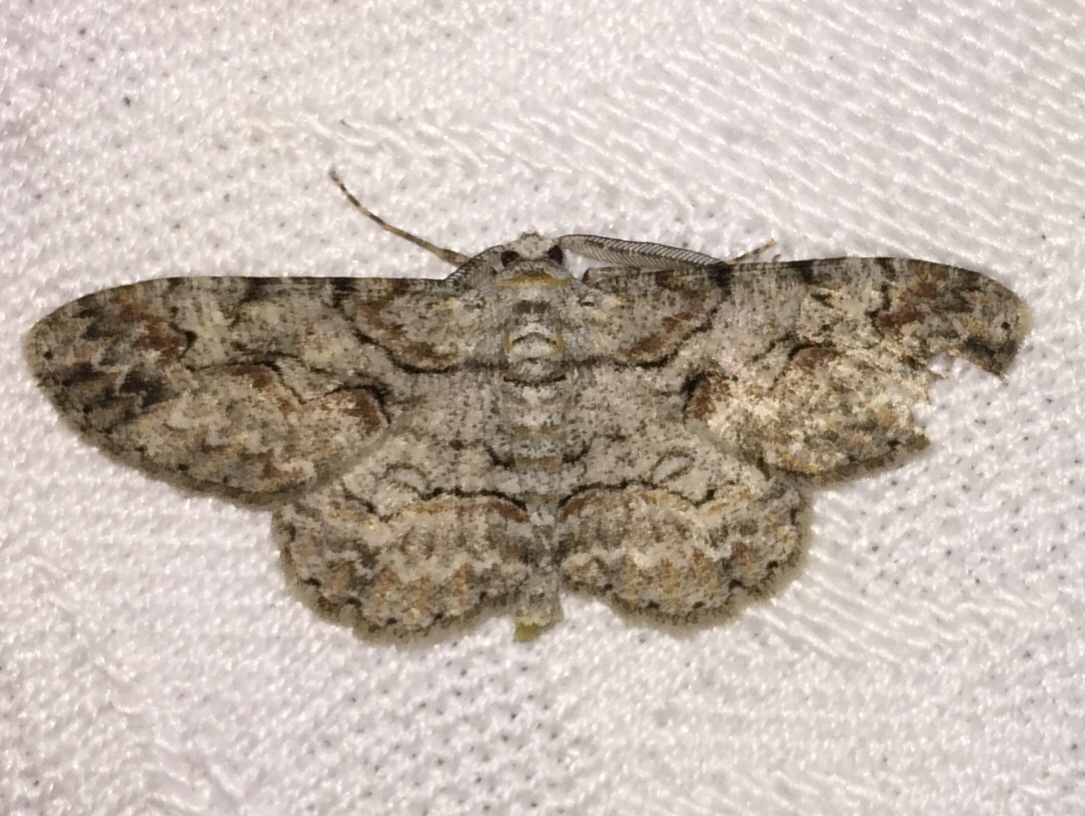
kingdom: Animalia
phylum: Arthropoda
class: Insecta
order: Lepidoptera
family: Geometridae
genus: Iridopsis
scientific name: Iridopsis defectaria
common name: Brown-shaded gray
